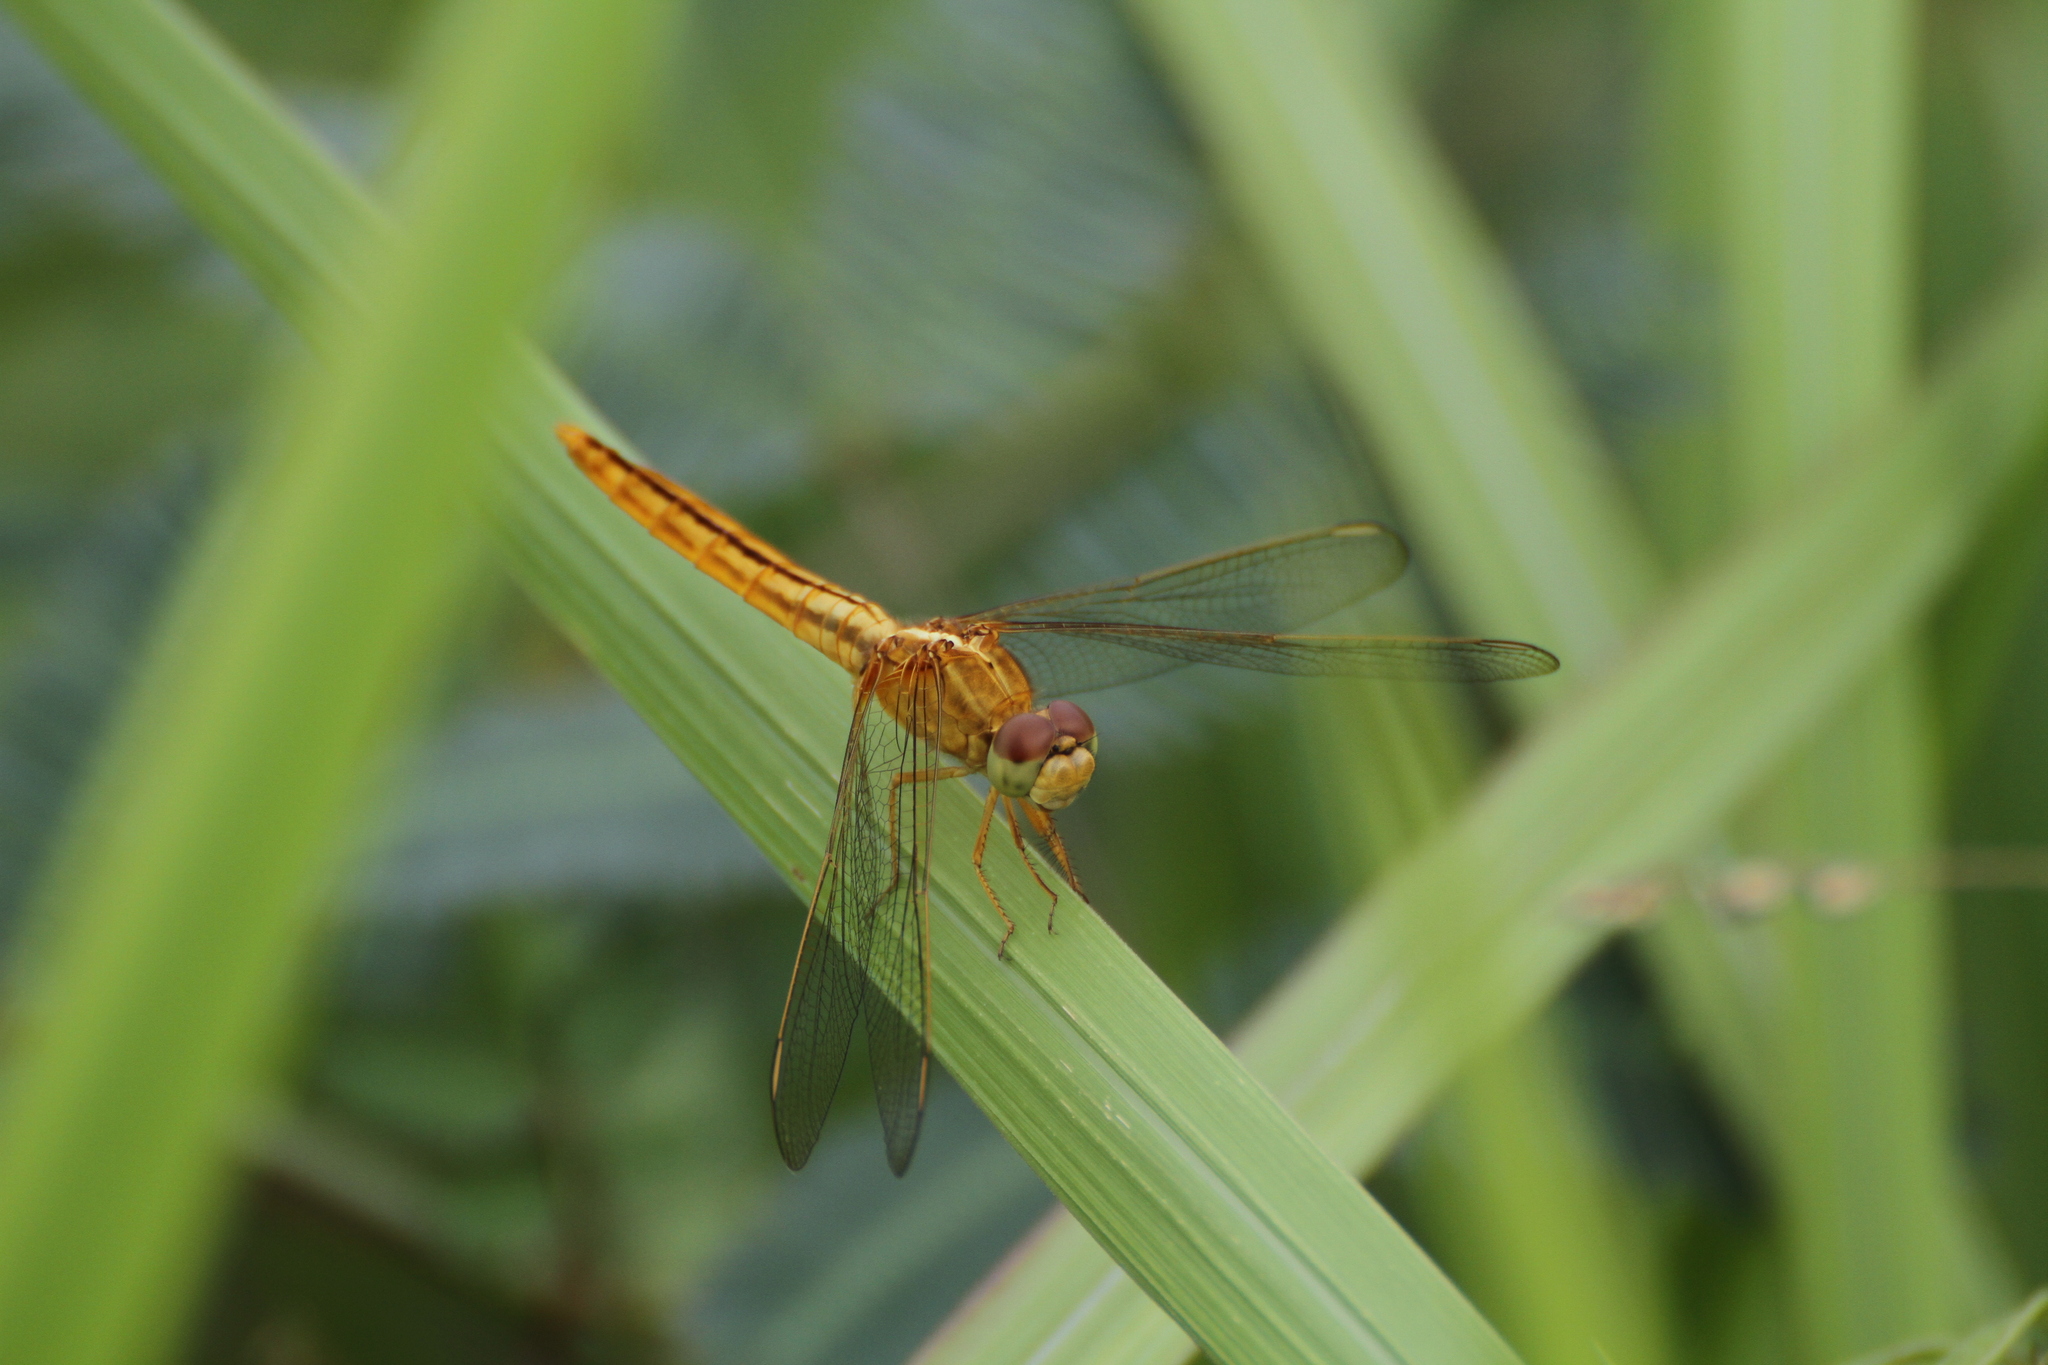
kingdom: Animalia
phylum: Arthropoda
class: Insecta
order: Odonata
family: Libellulidae
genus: Crocothemis
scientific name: Crocothemis servilia
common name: Scarlet skimmer
